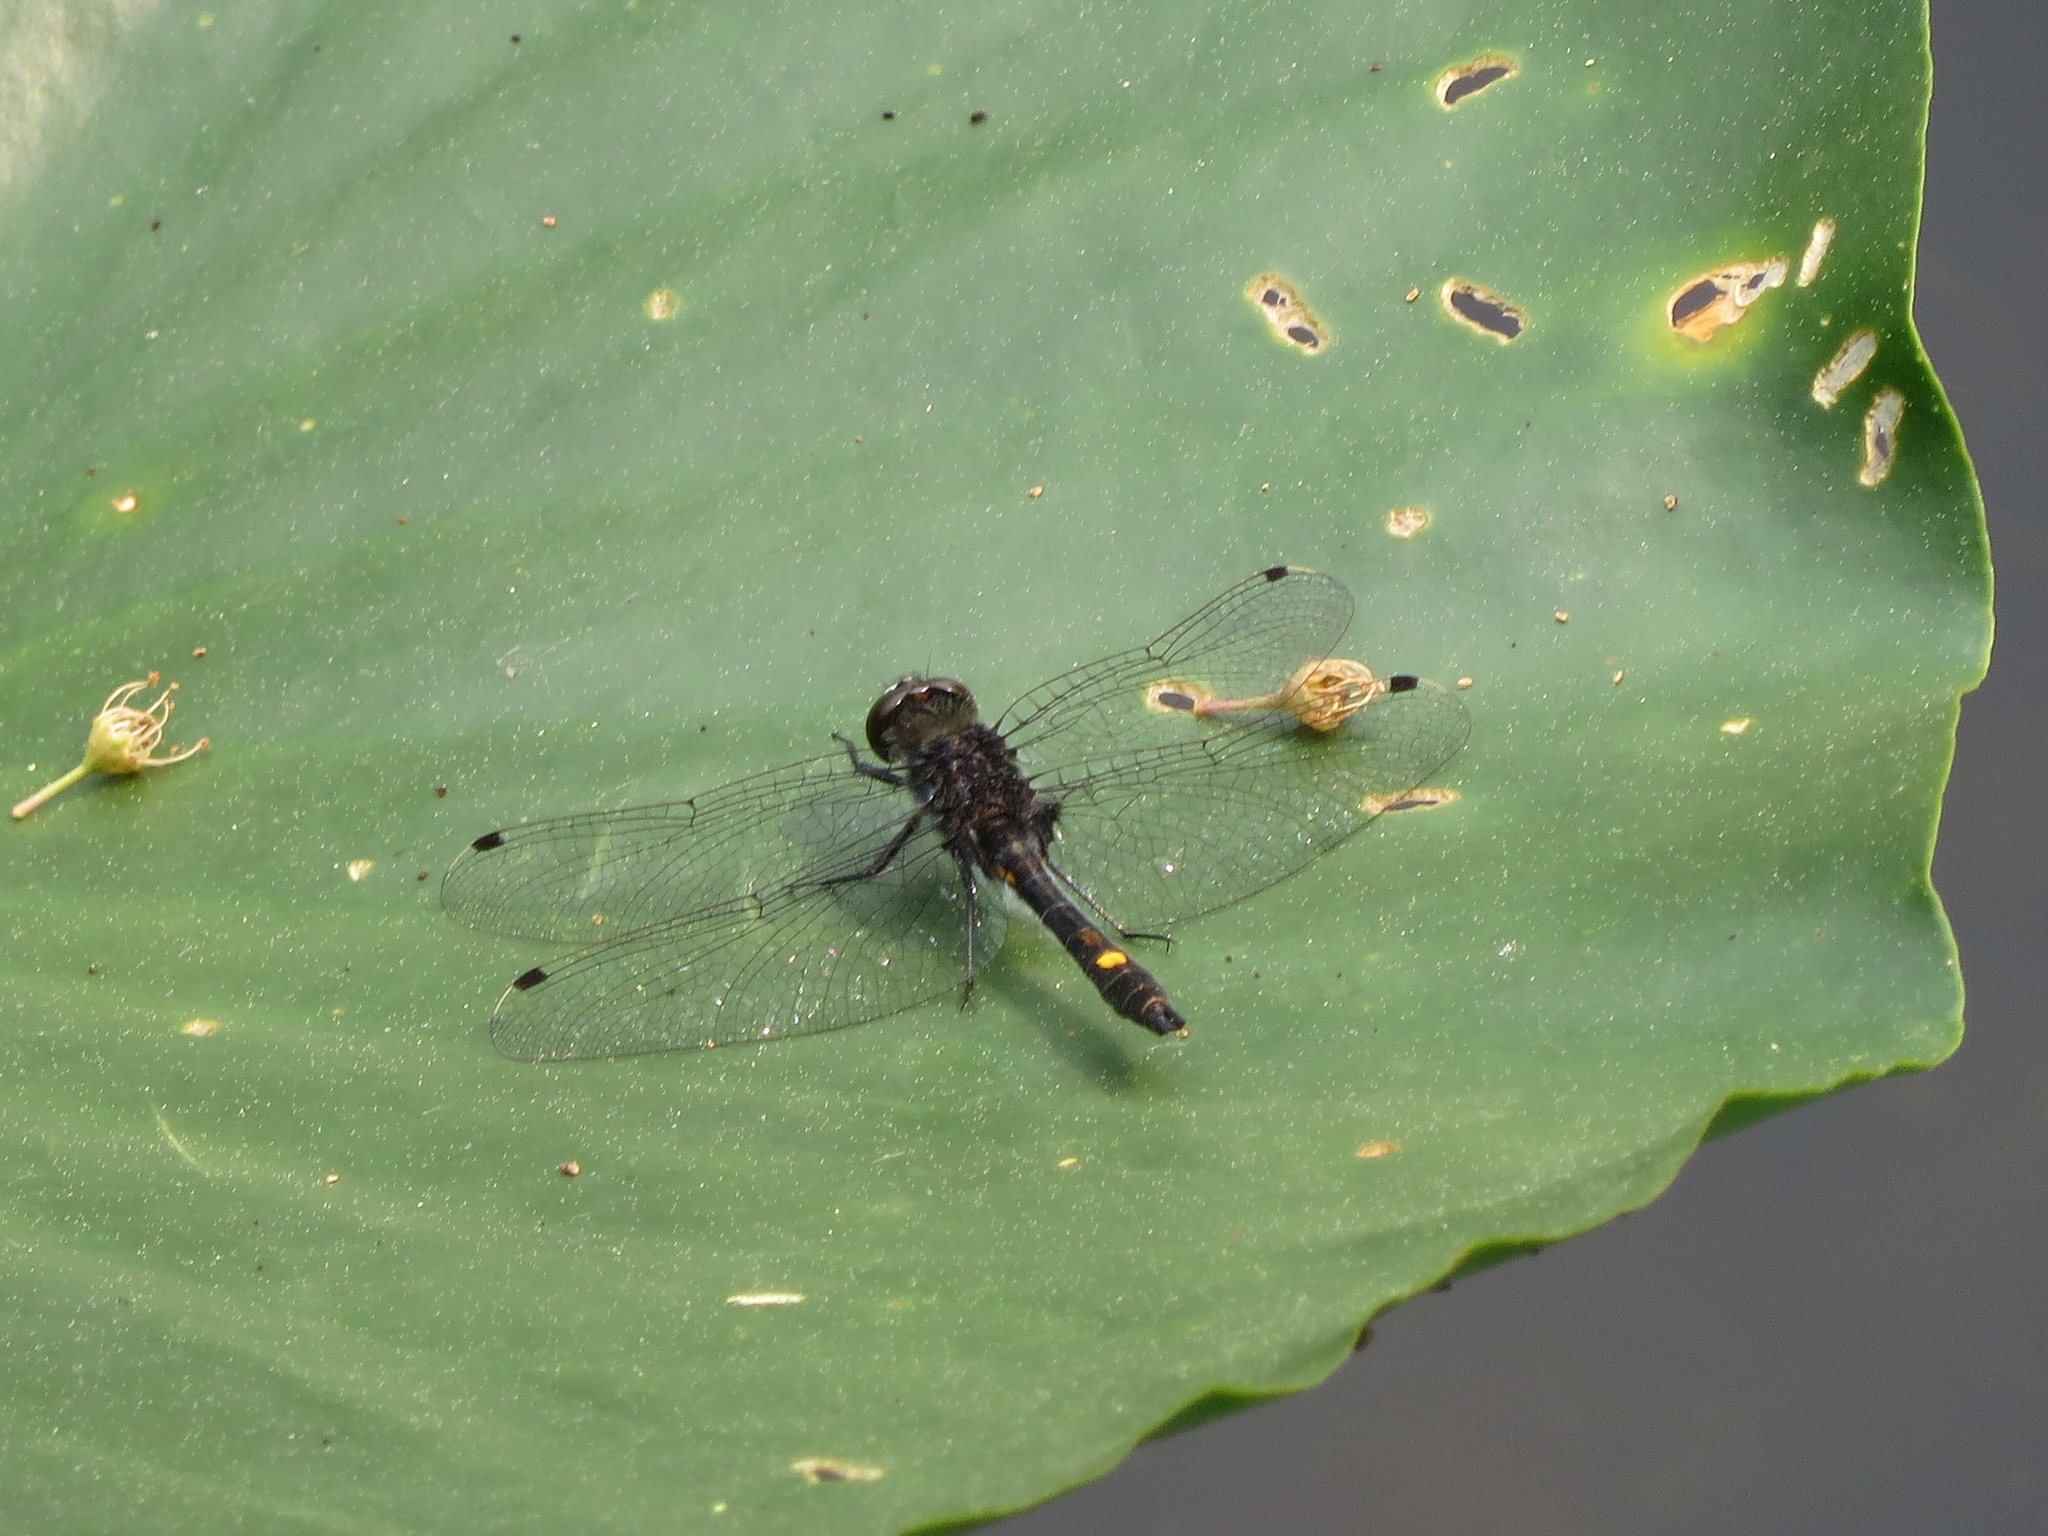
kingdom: Animalia
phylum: Arthropoda
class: Insecta
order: Odonata
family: Libellulidae
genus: Leucorrhinia
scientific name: Leucorrhinia intacta
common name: Dot-tailed whiteface
